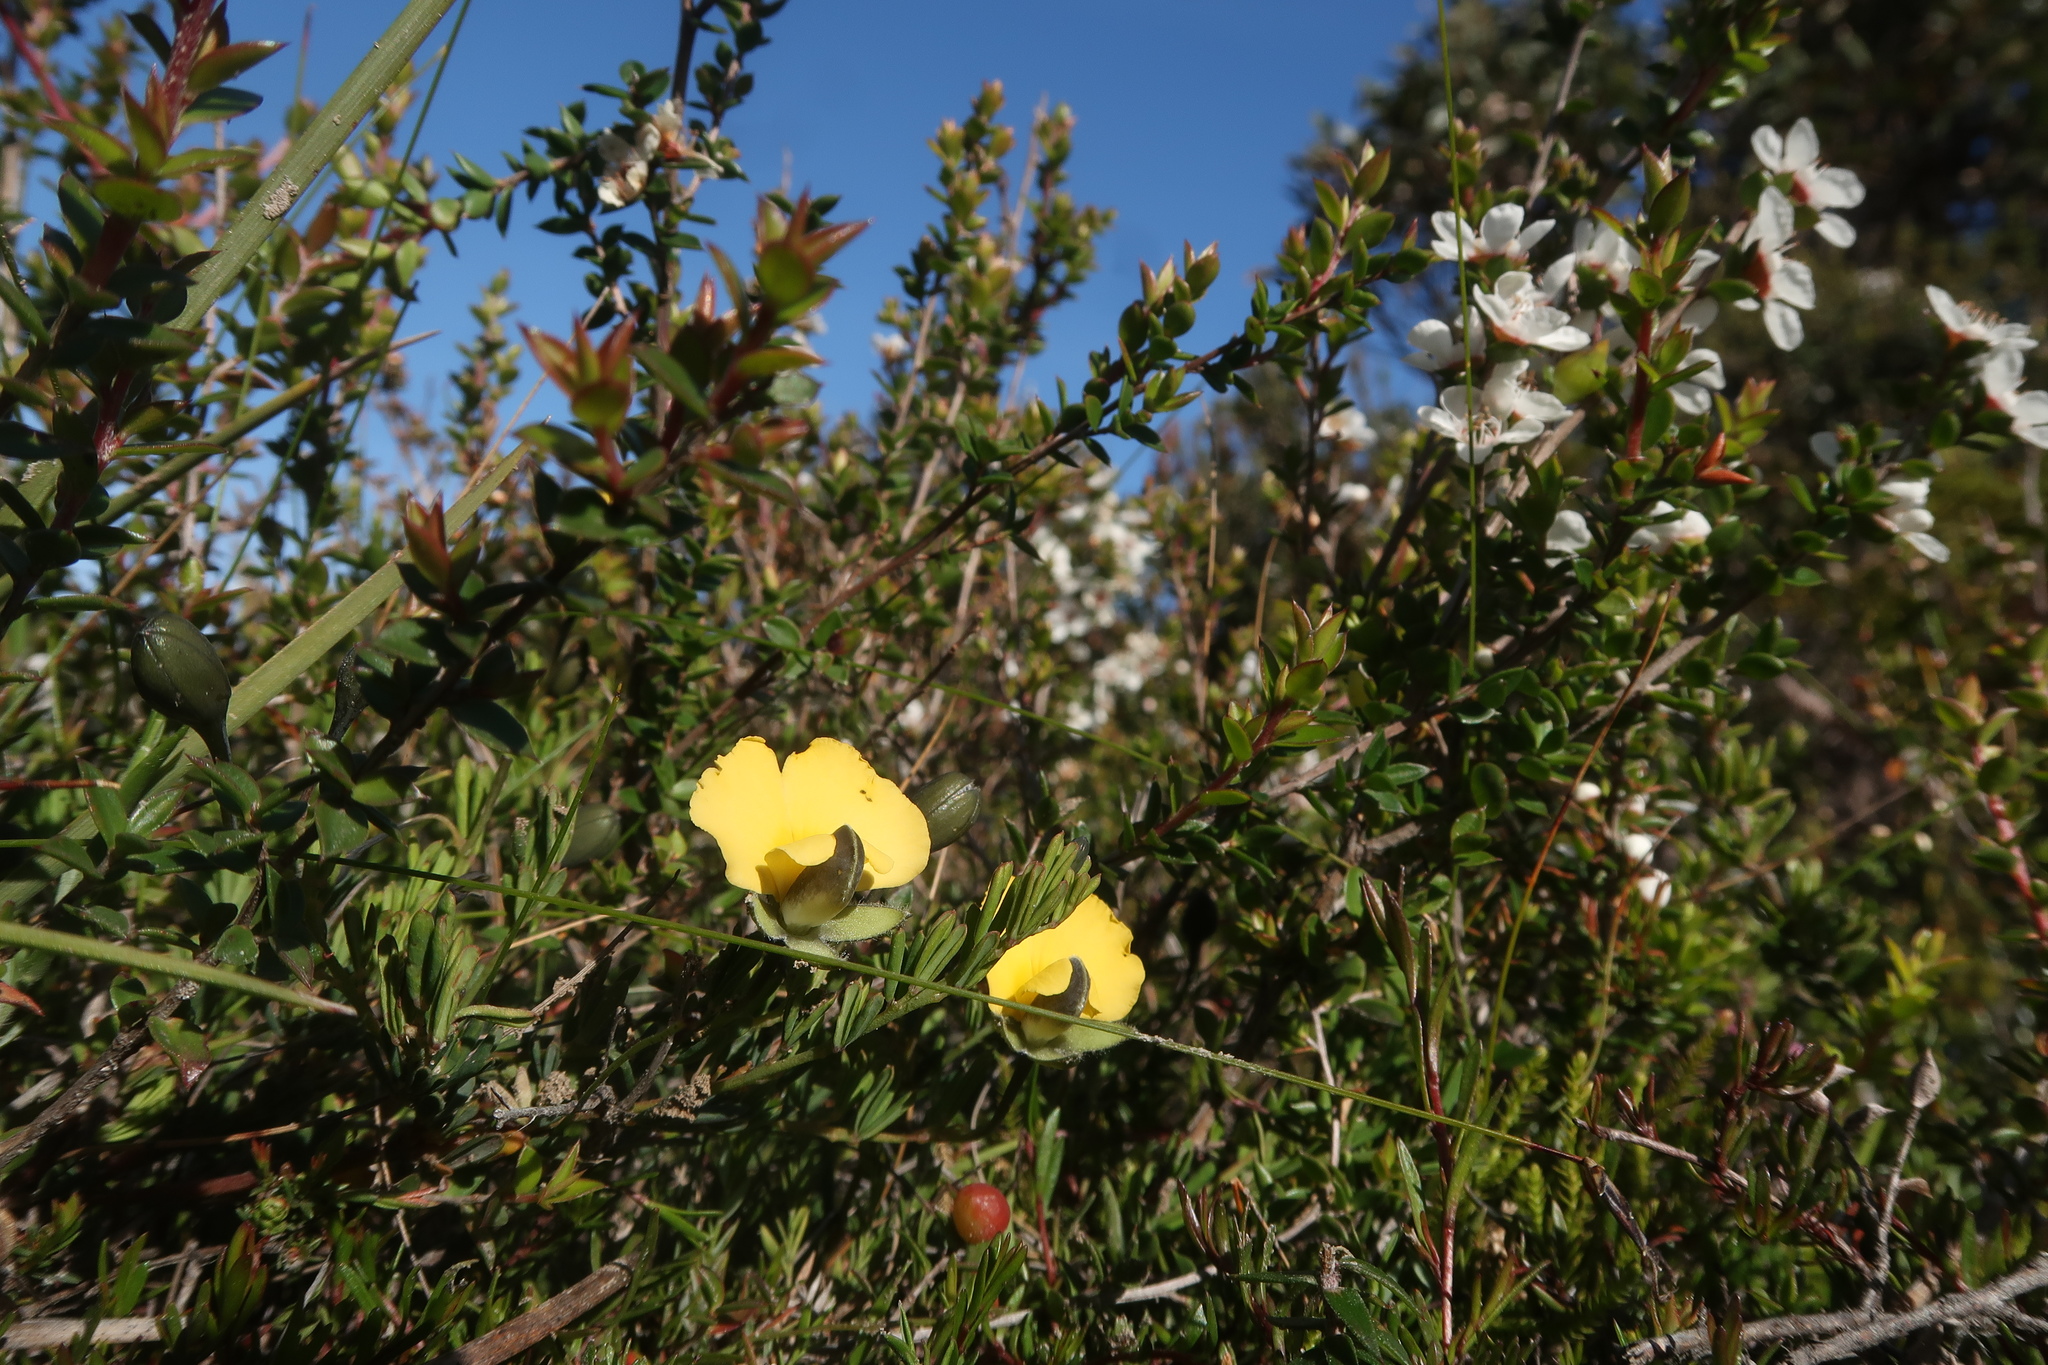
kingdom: Plantae
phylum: Tracheophyta
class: Magnoliopsida
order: Fabales
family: Fabaceae
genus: Gompholobium
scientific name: Gompholobium huegelii
